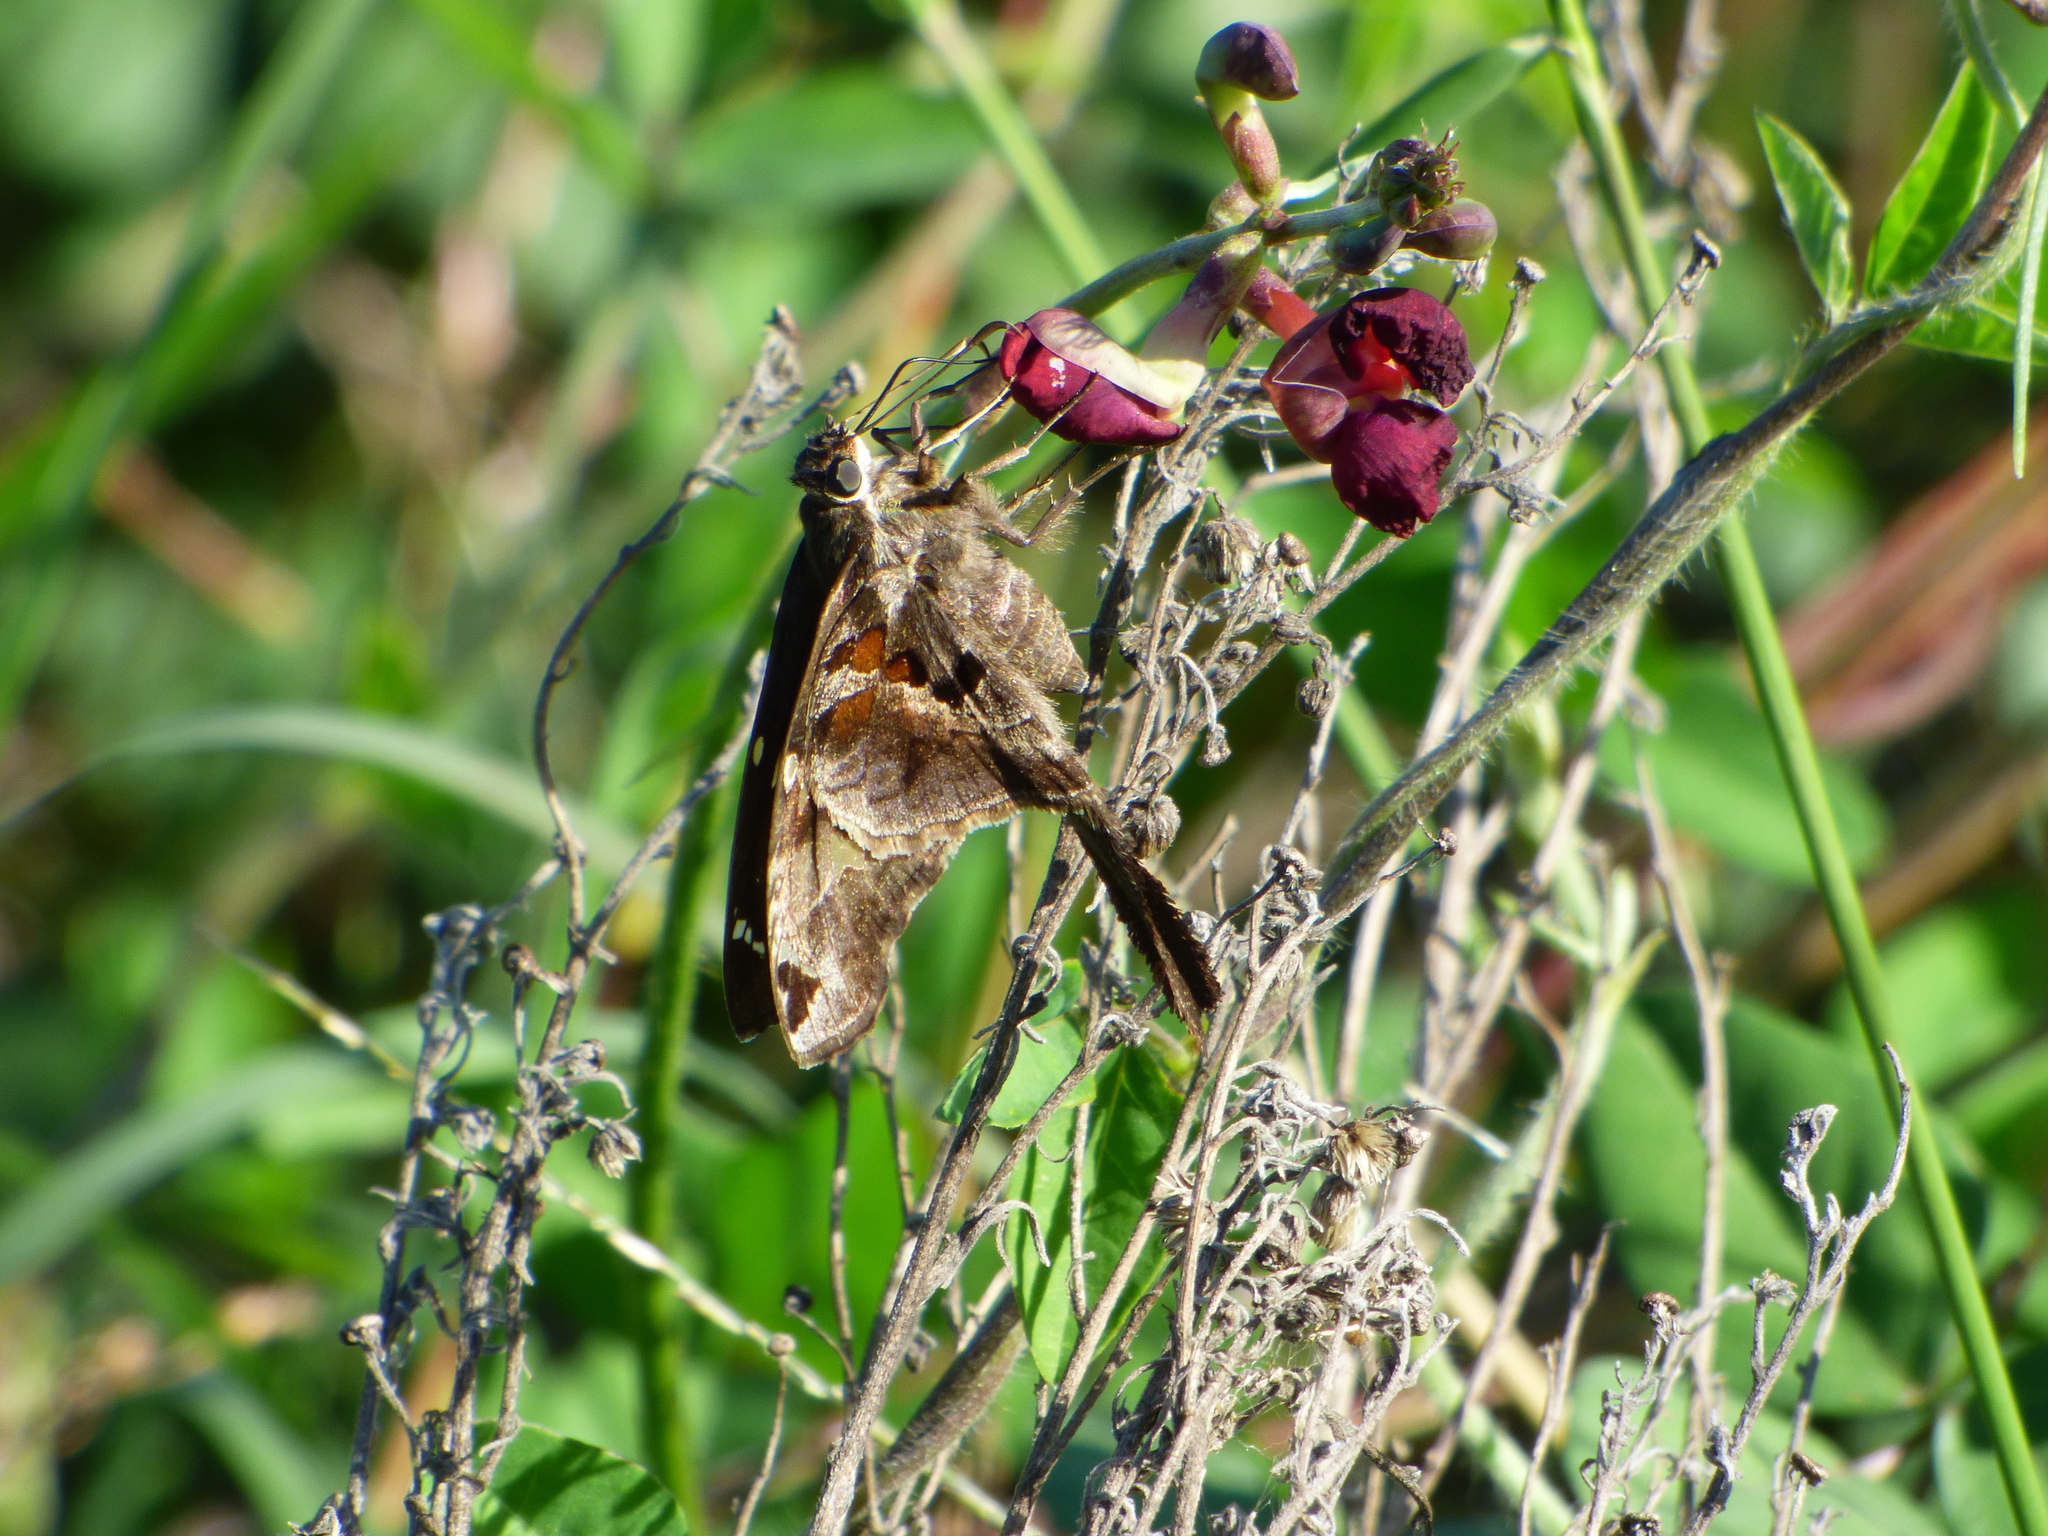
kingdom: Animalia
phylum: Arthropoda
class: Insecta
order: Lepidoptera
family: Hesperiidae
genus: Chioides
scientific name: Chioides catillus
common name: Silverbanded skipper
